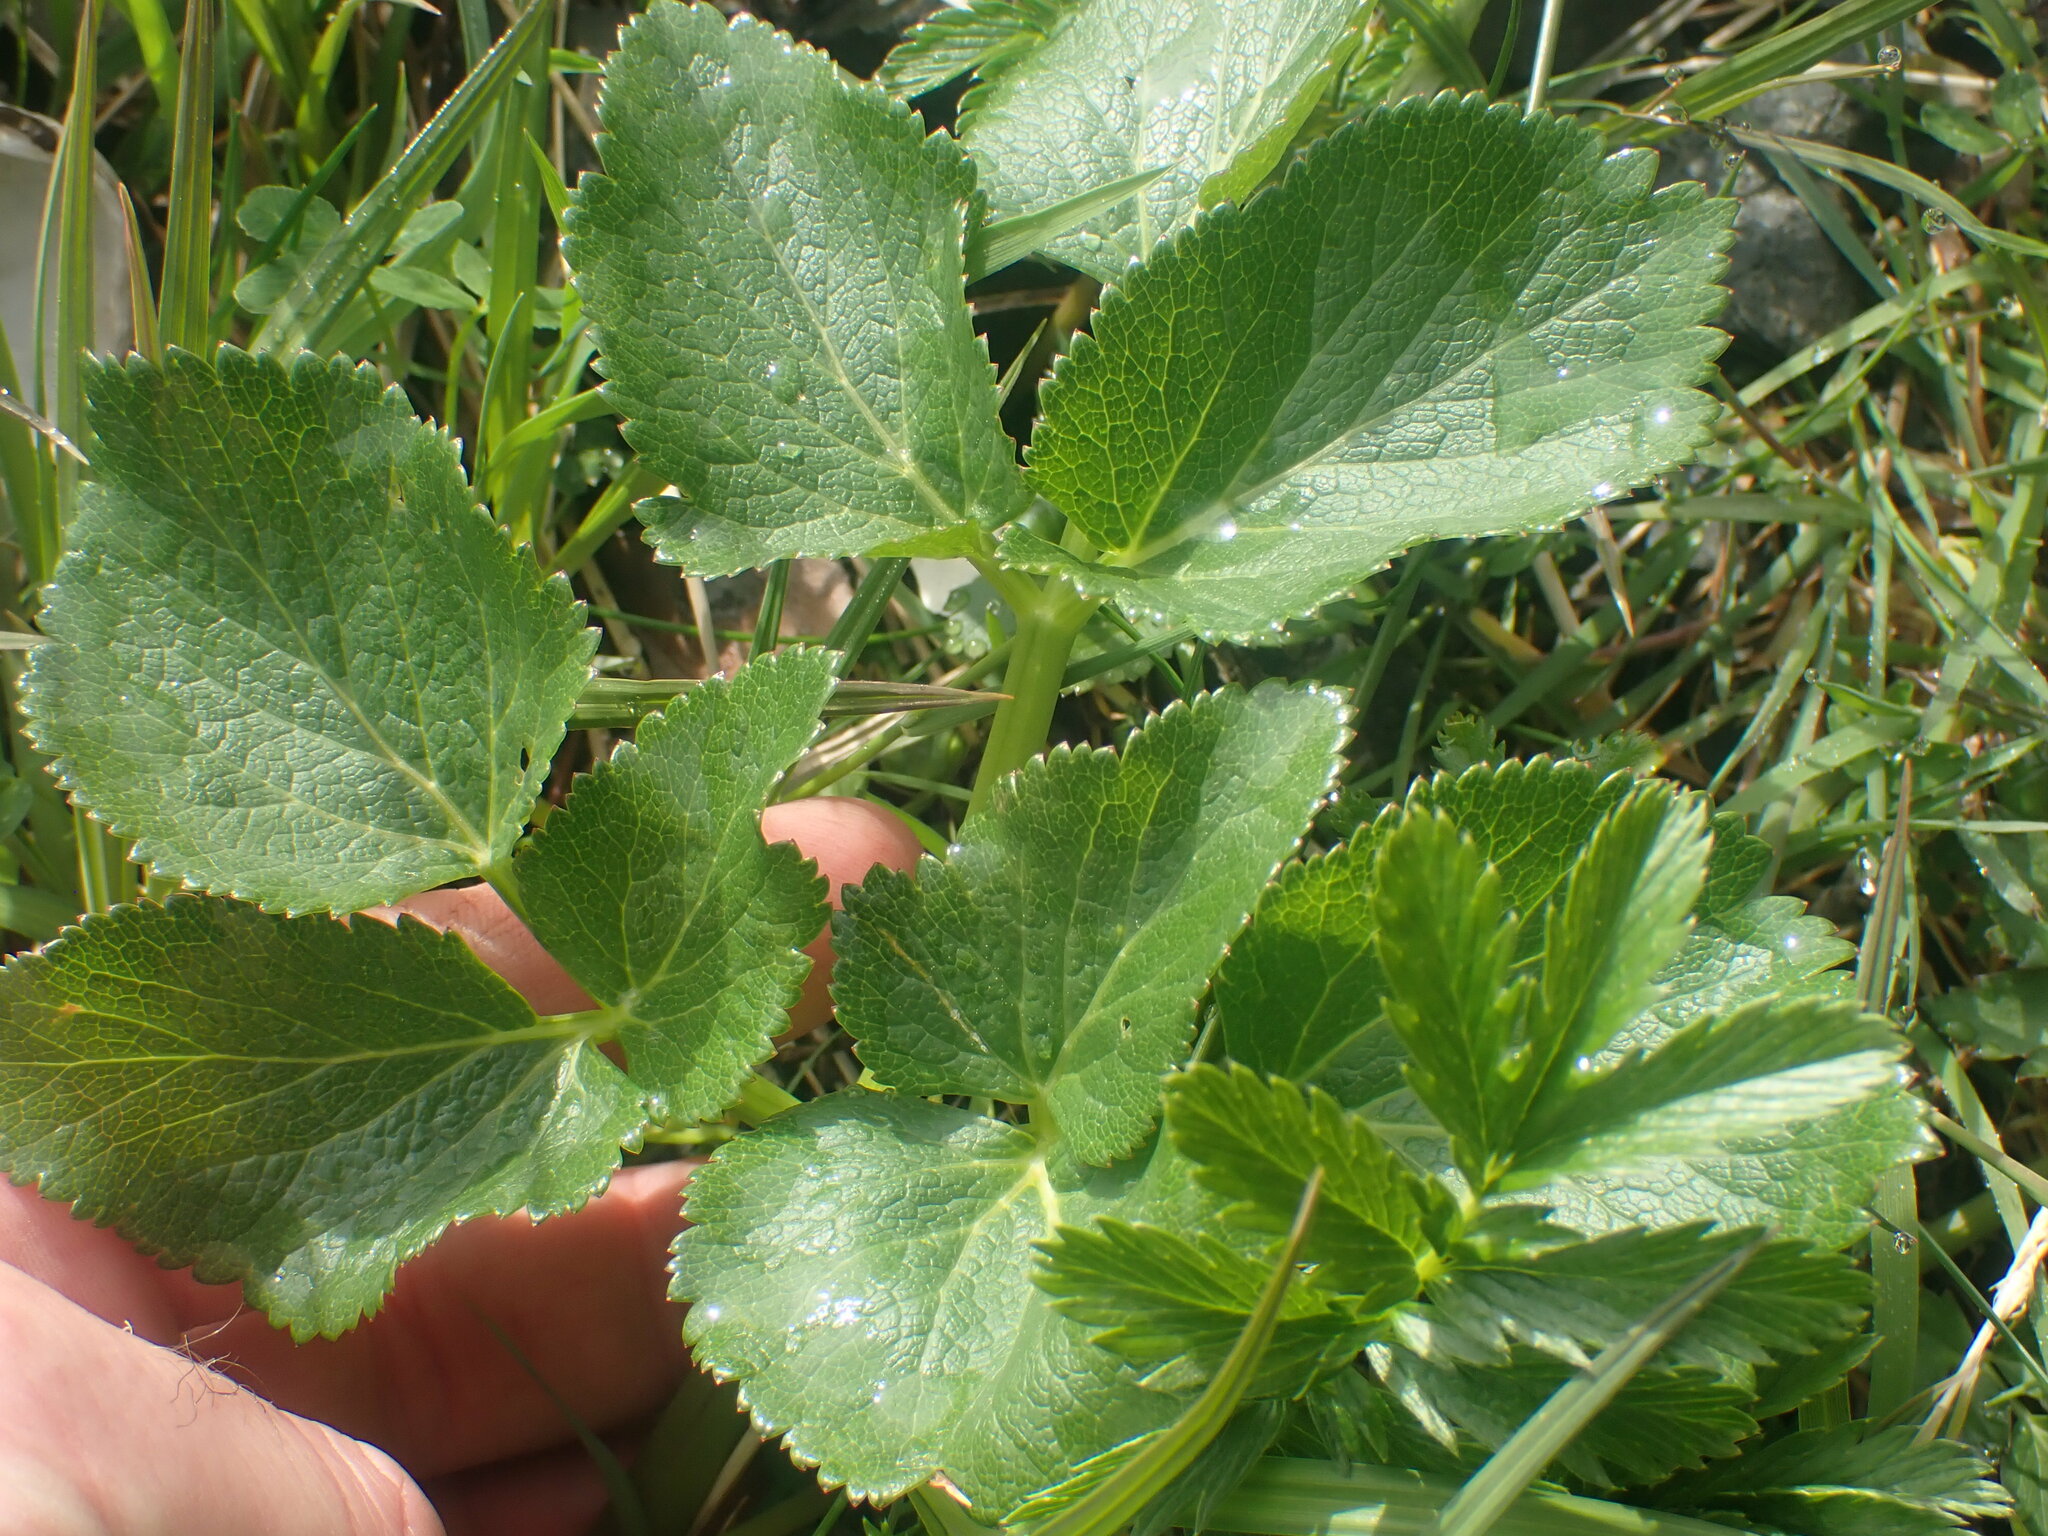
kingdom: Plantae
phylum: Tracheophyta
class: Magnoliopsida
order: Apiales
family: Apiaceae
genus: Angelica
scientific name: Angelica lucida
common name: Seabeach angelica
